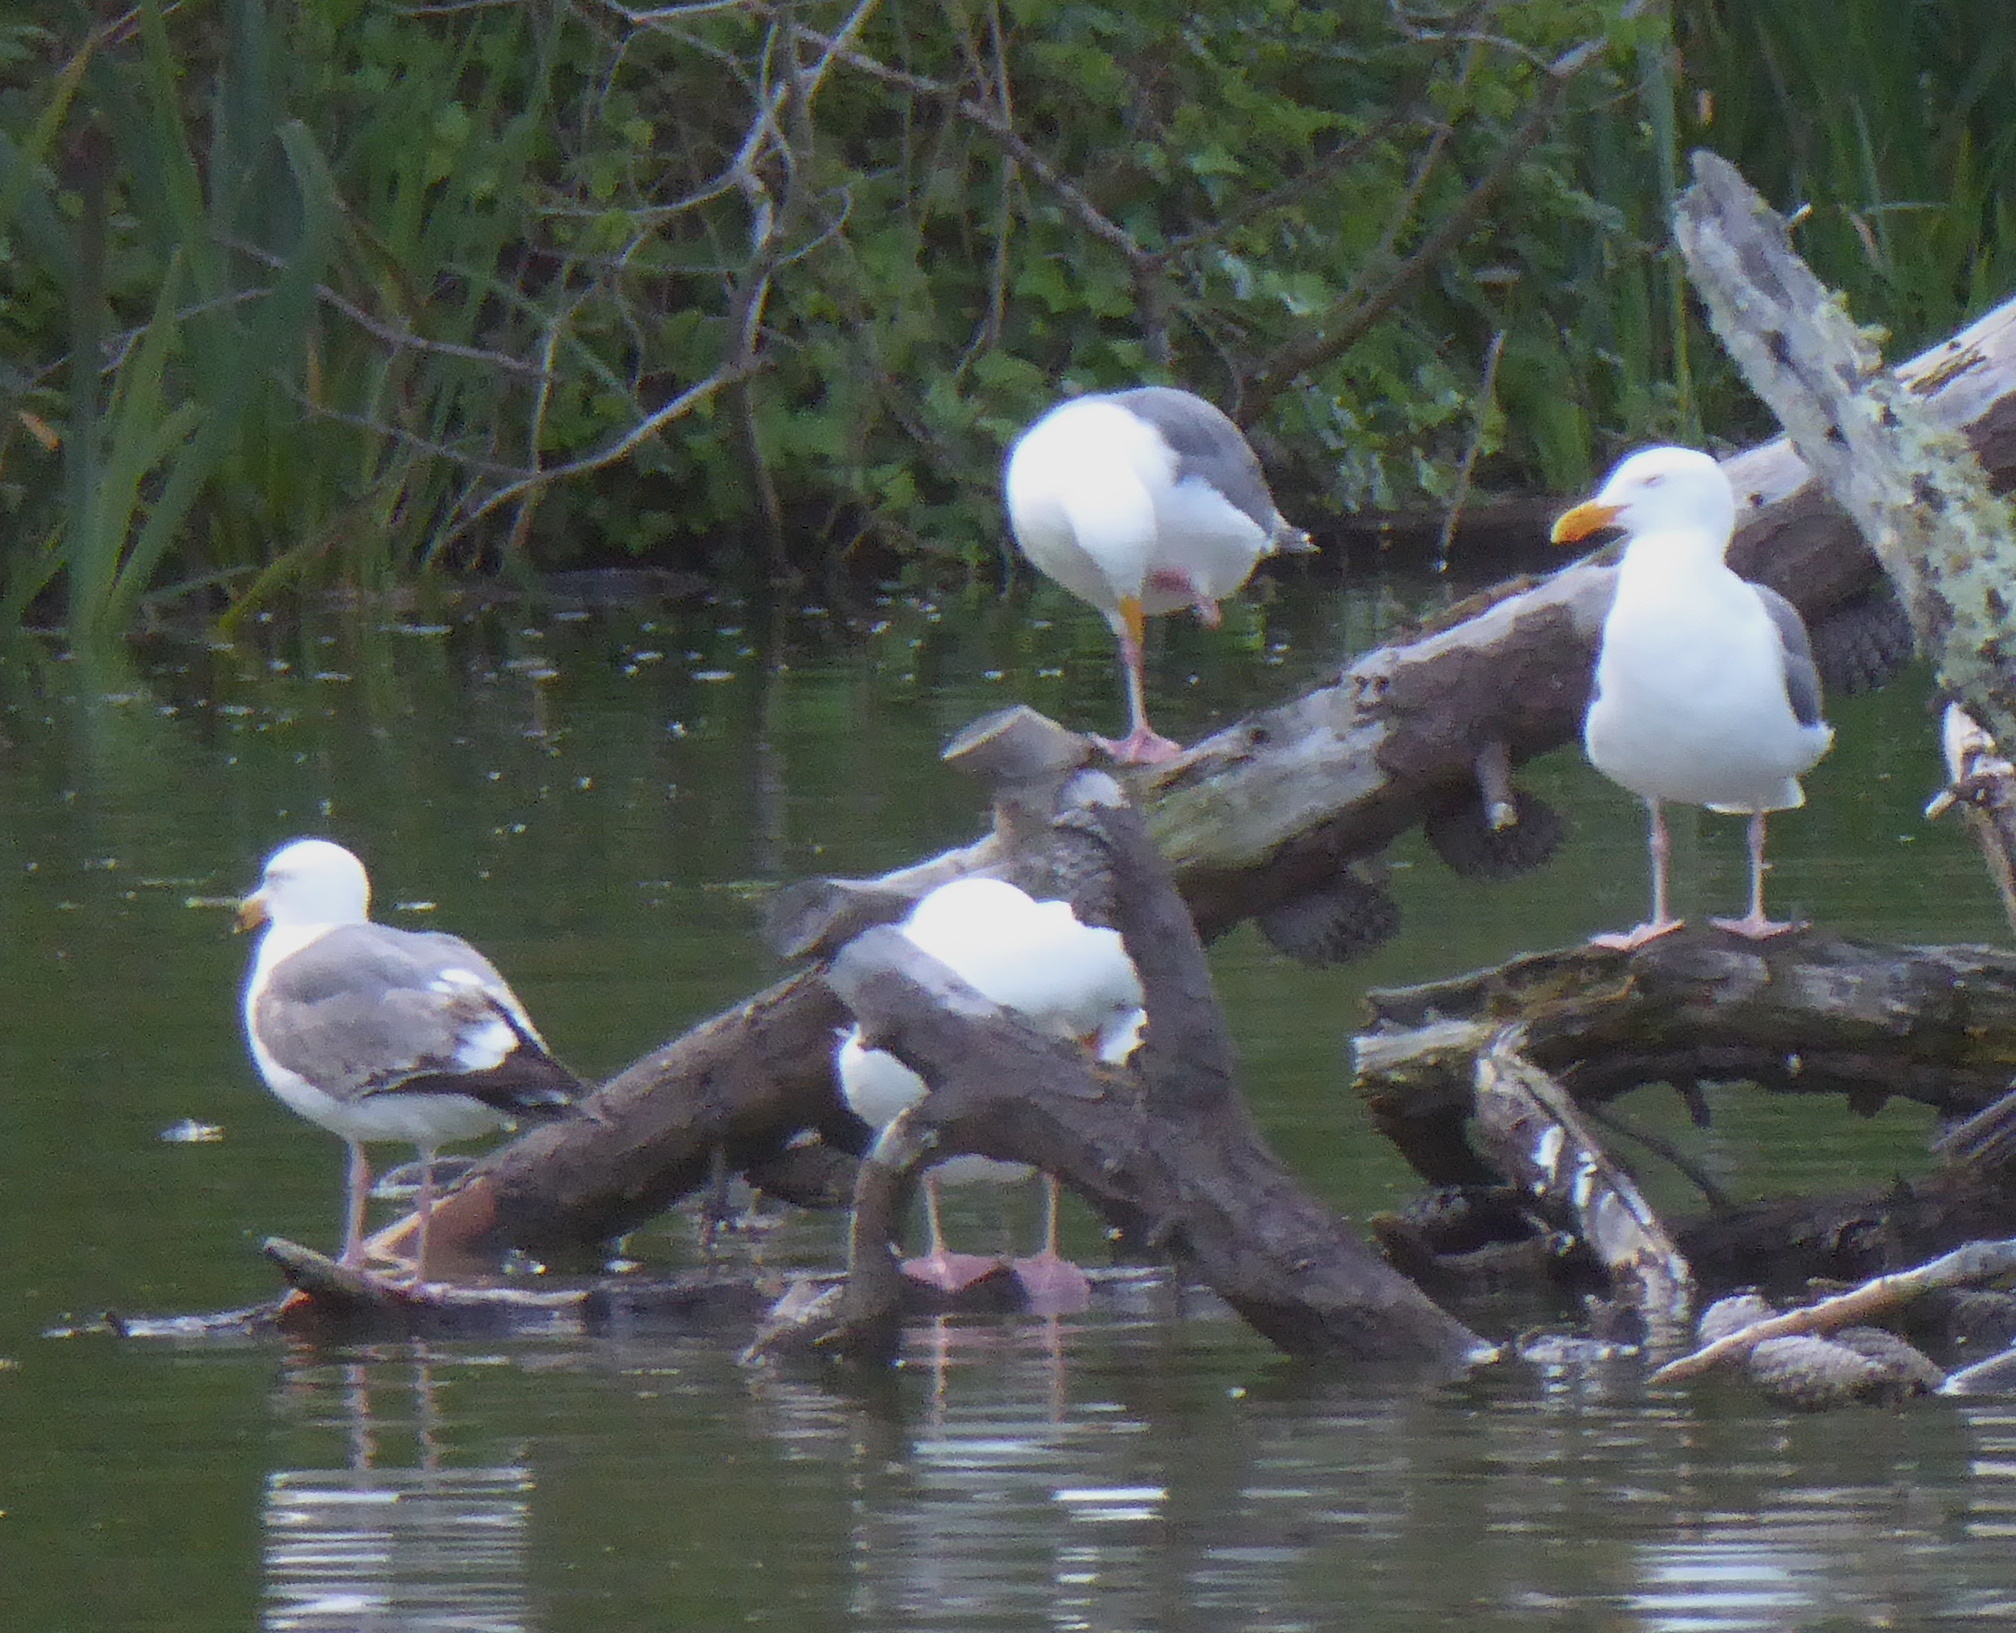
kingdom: Animalia
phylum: Chordata
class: Aves
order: Charadriiformes
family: Laridae
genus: Larus
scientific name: Larus occidentalis
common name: Western gull
